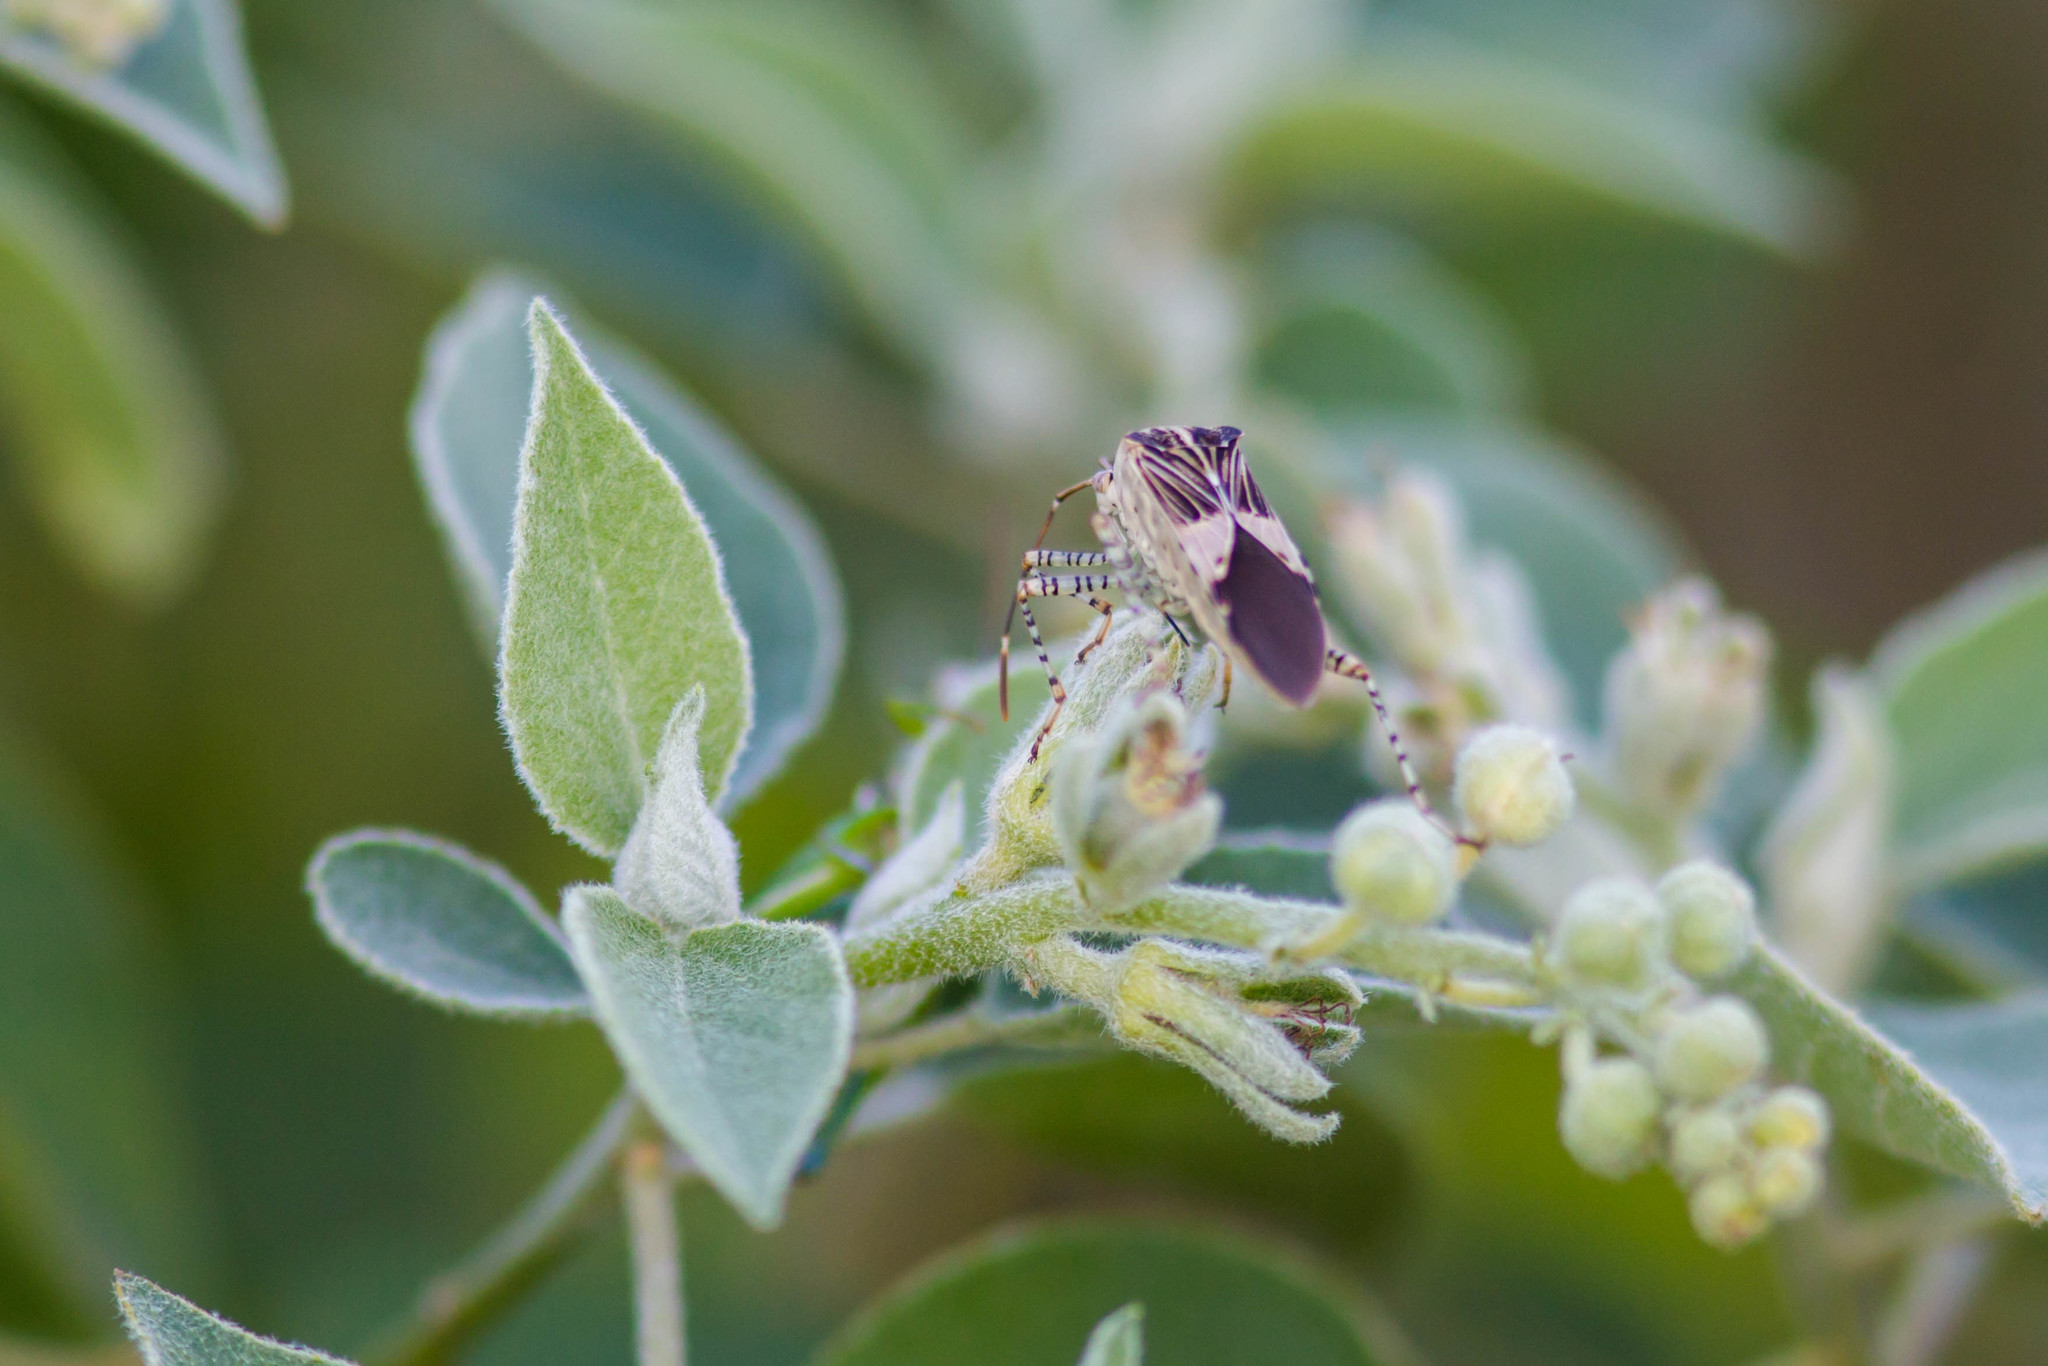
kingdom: Animalia
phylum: Arthropoda
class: Insecta
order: Hemiptera
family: Coreidae
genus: Hypselonotus
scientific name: Hypselonotus punctiventris
